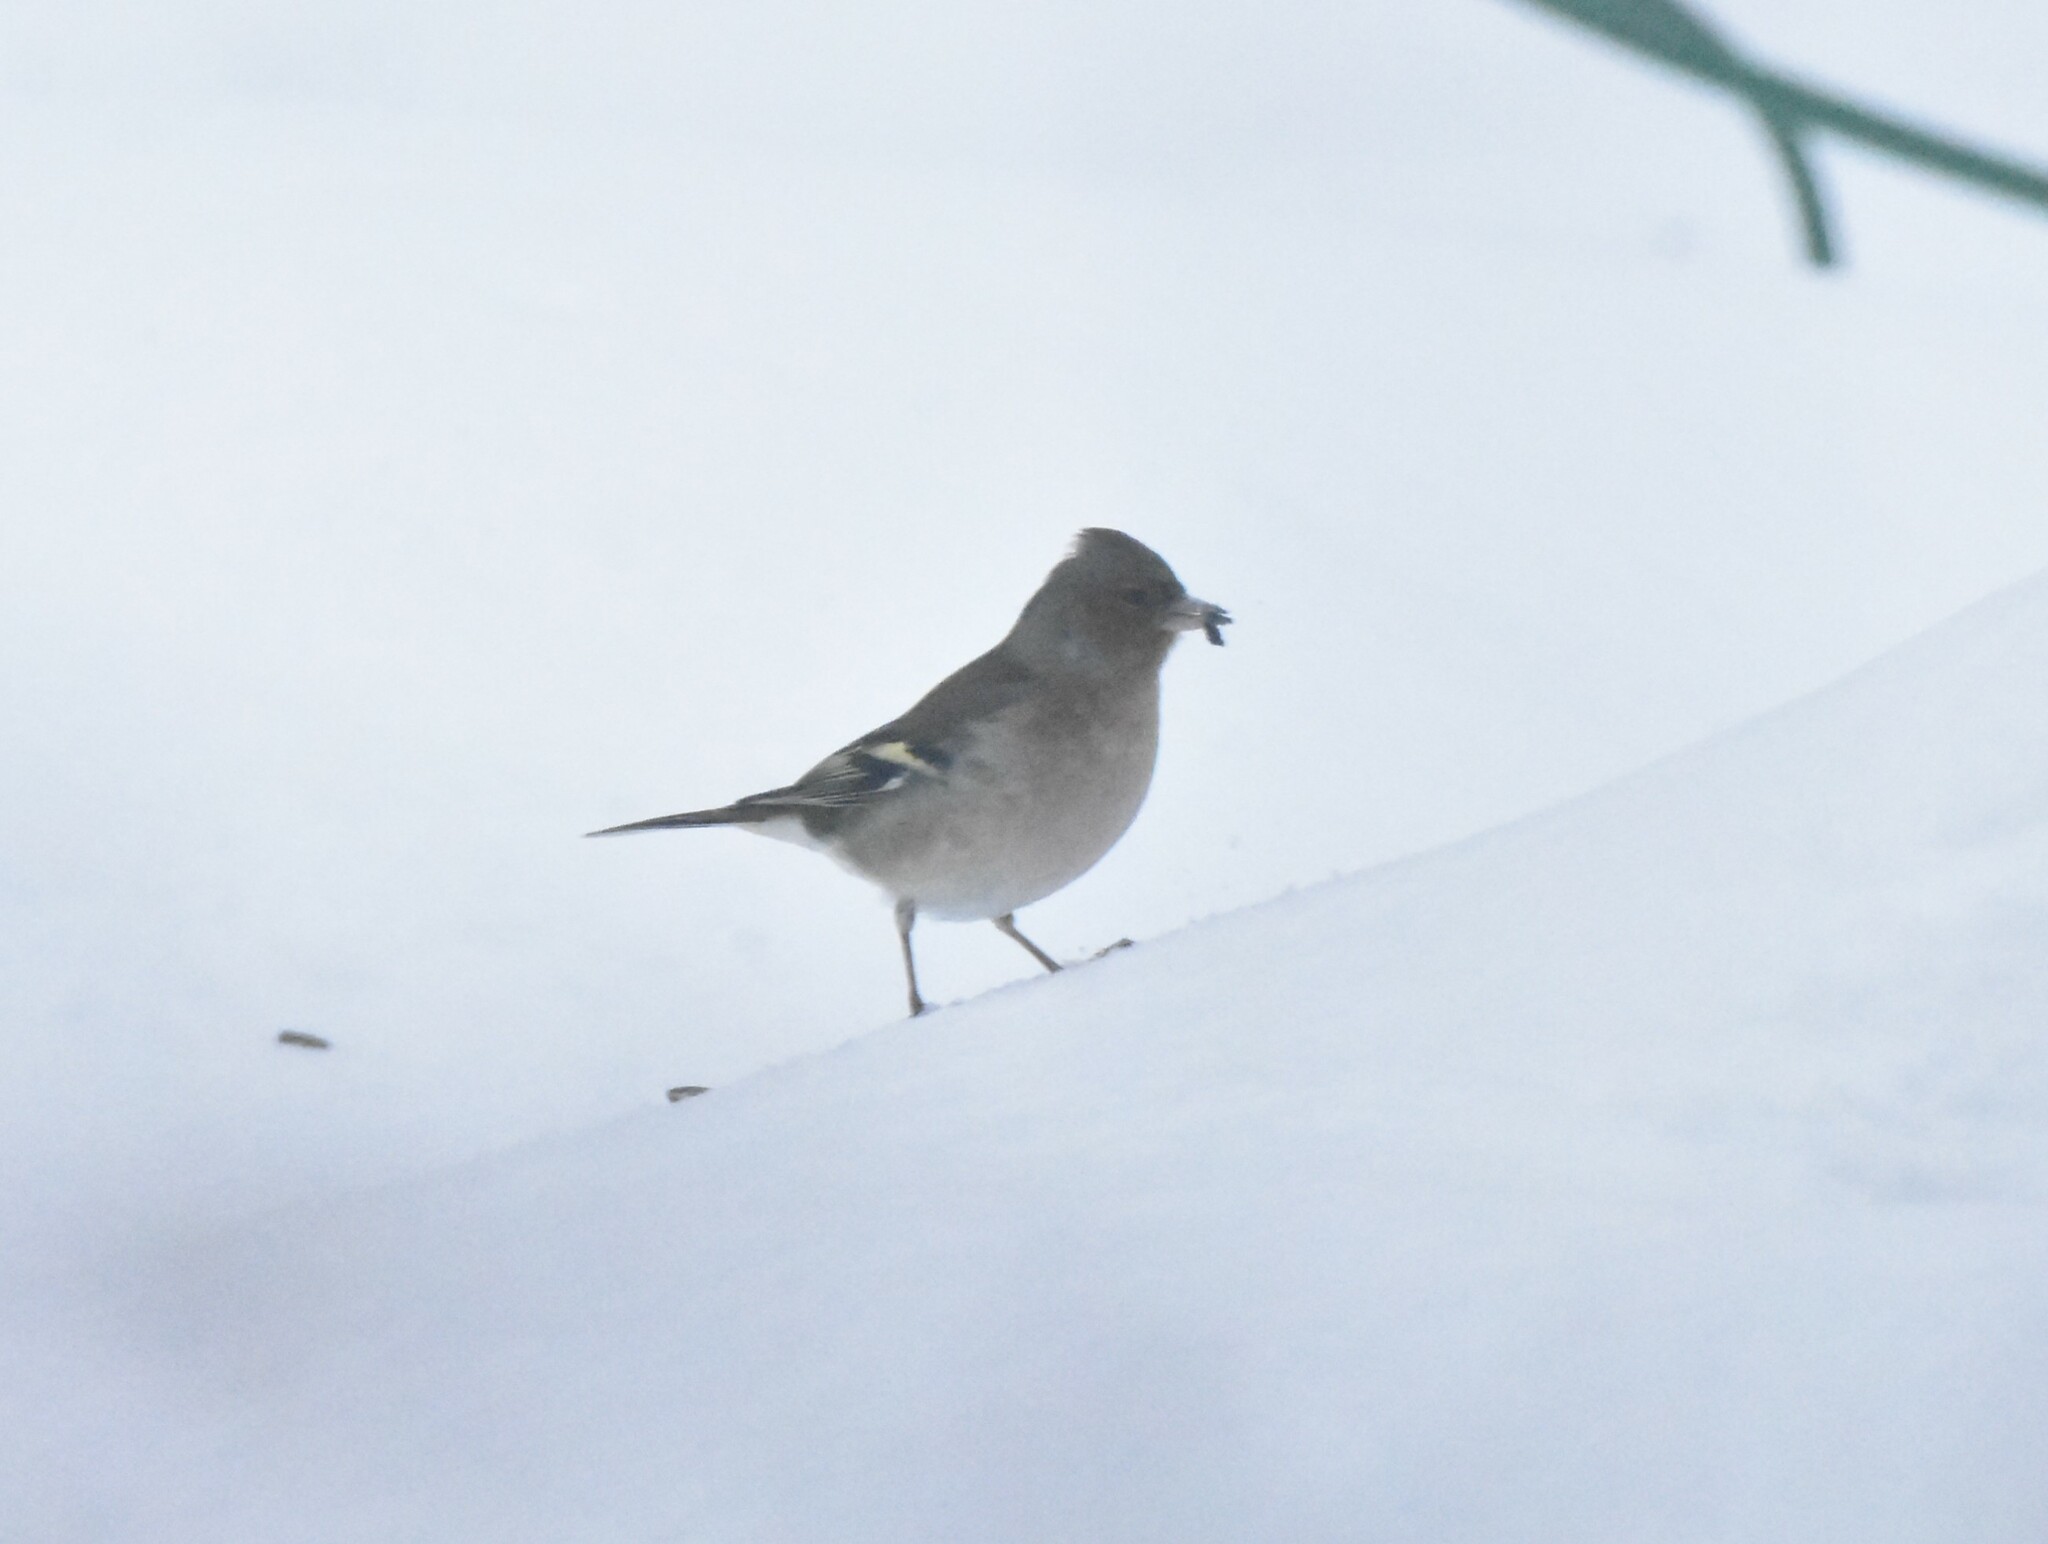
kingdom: Animalia
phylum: Chordata
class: Aves
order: Passeriformes
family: Fringillidae
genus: Fringilla
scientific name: Fringilla coelebs
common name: Common chaffinch
